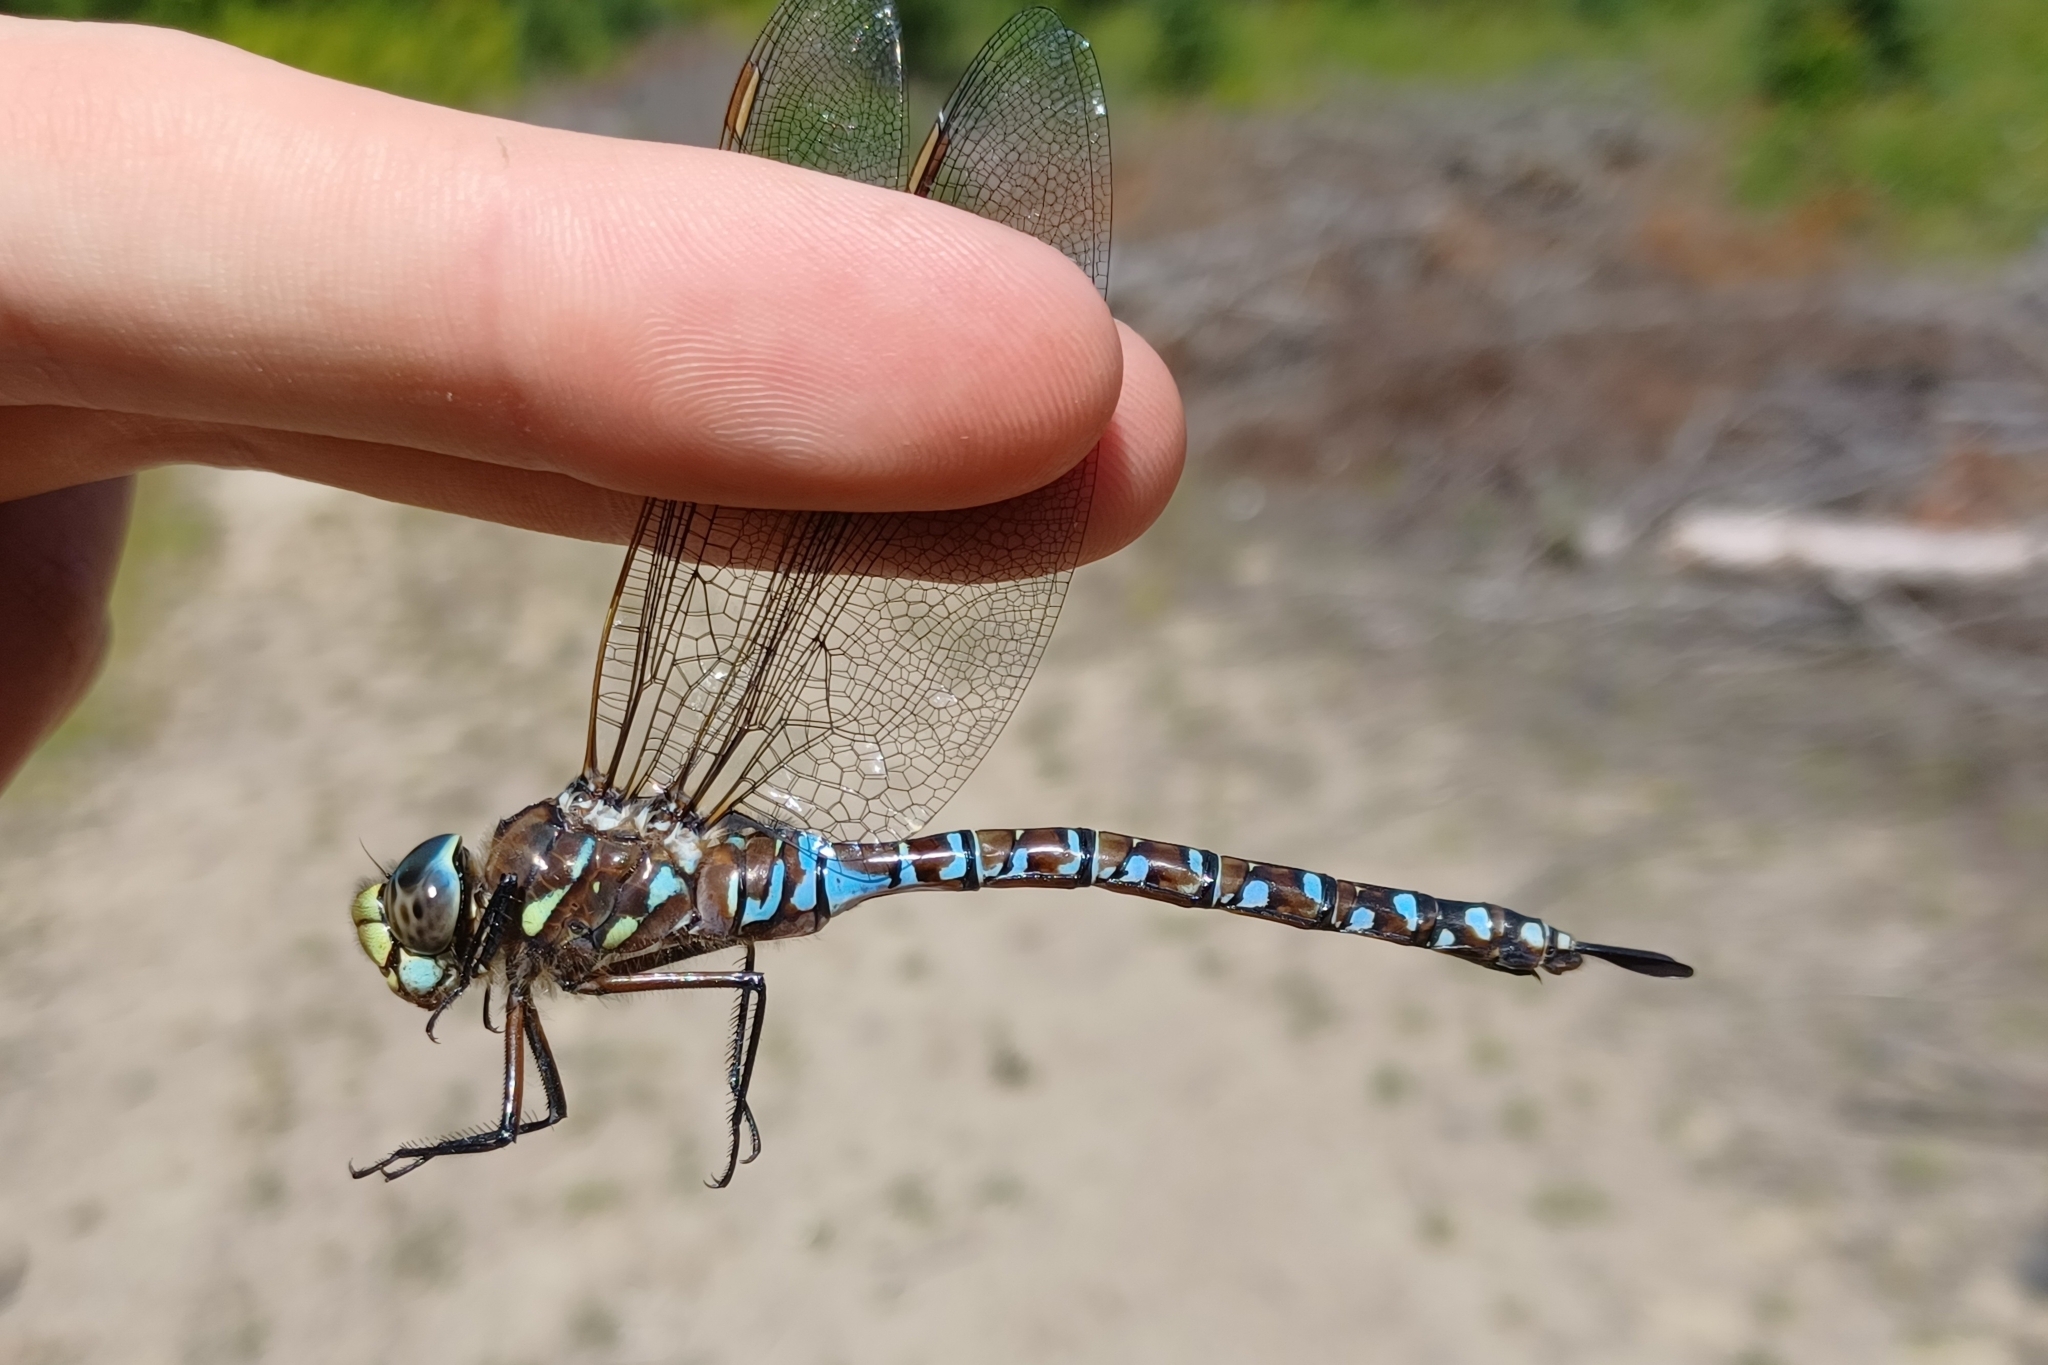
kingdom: Animalia
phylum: Arthropoda
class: Insecta
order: Odonata
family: Aeshnidae
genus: Aeshna
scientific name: Aeshna interrupta
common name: Variable darner
